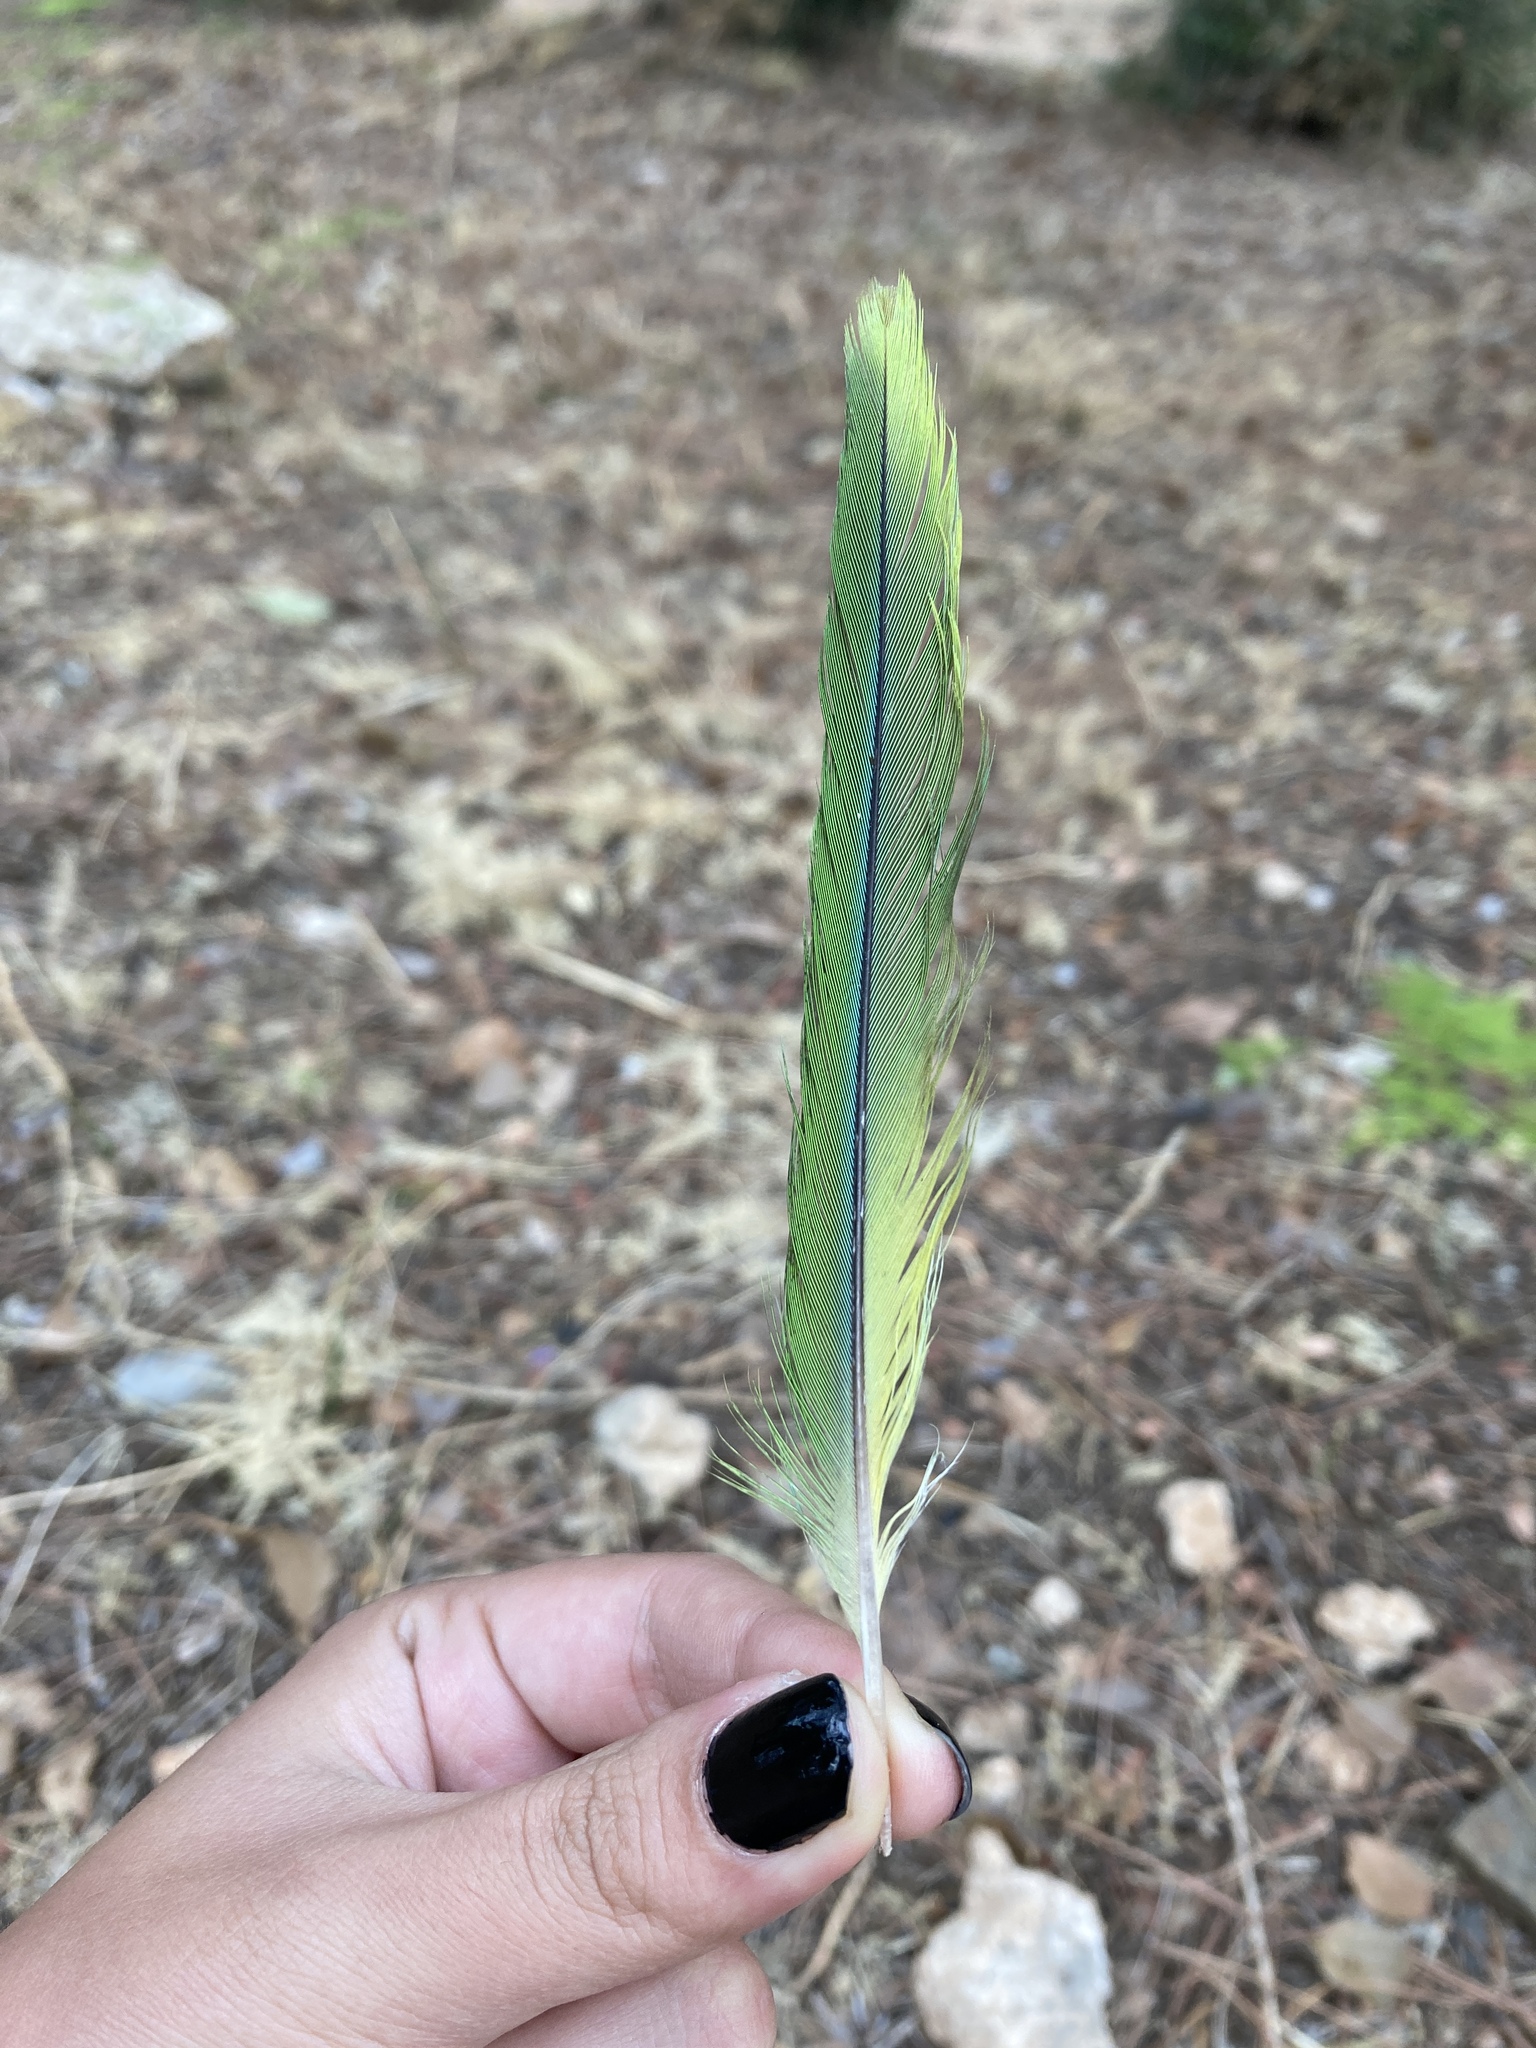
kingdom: Animalia
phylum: Chordata
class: Aves
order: Psittaciformes
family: Psittacidae
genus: Myiopsitta
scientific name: Myiopsitta monachus
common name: Monk parakeet
